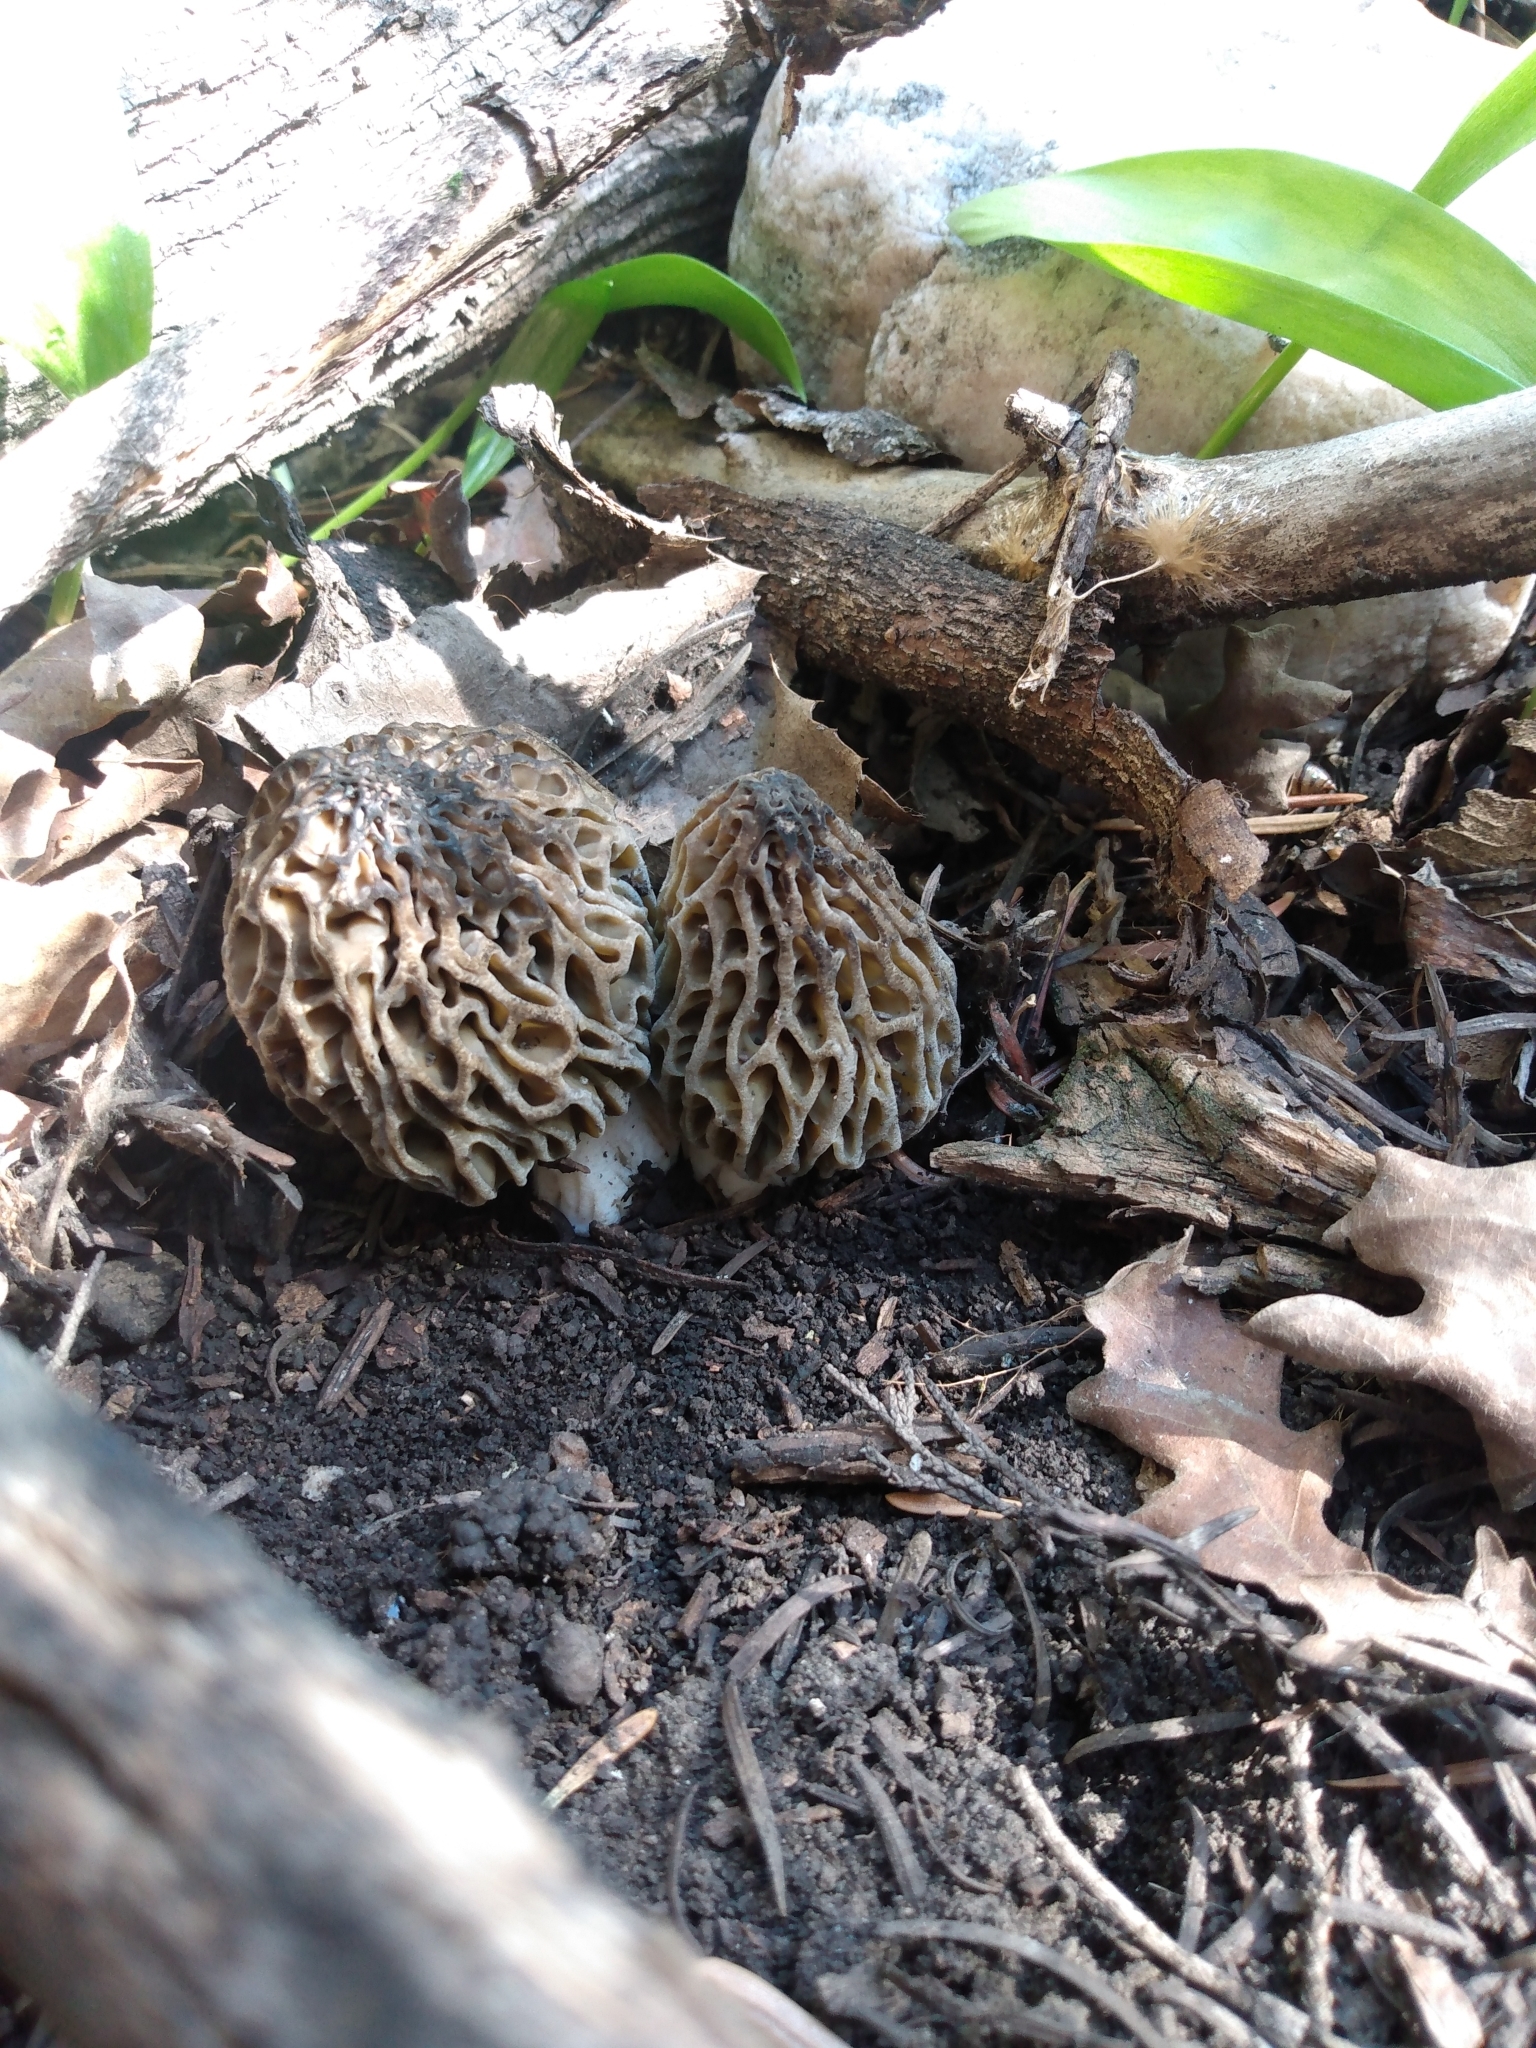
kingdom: Fungi
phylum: Ascomycota
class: Pezizomycetes
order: Pezizales
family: Morchellaceae
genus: Morchella
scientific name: Morchella snyderi
